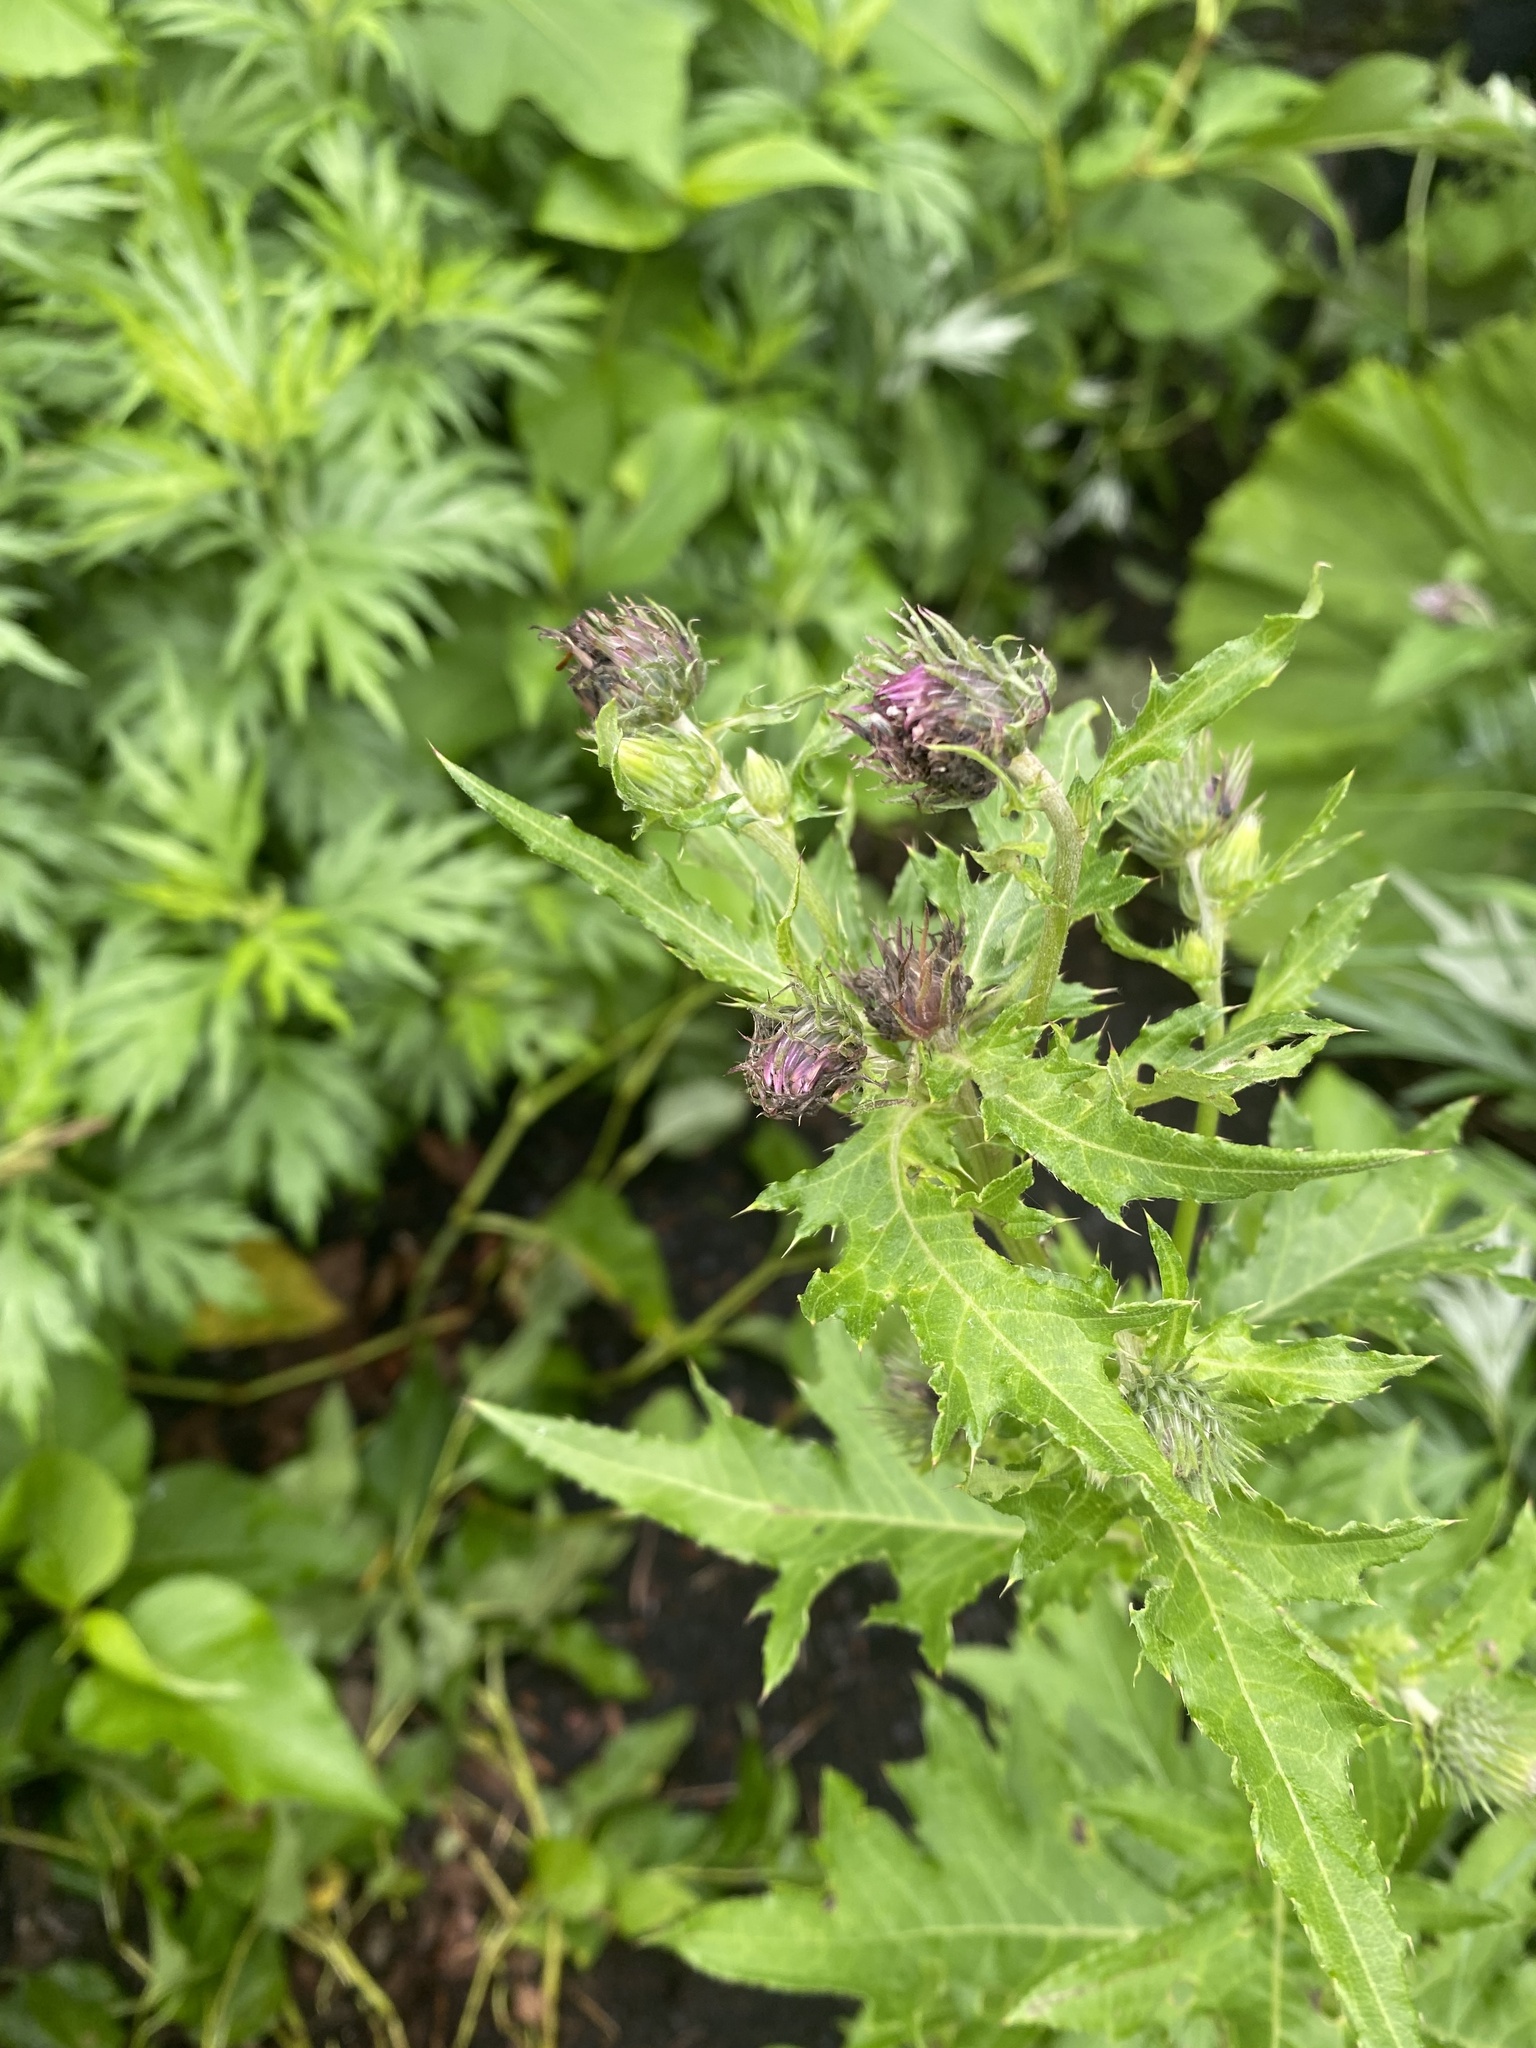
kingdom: Plantae
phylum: Tracheophyta
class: Magnoliopsida
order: Asterales
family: Asteraceae
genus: Cirsium
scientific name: Cirsium kamtschaticum
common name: Kamchatka thistle
